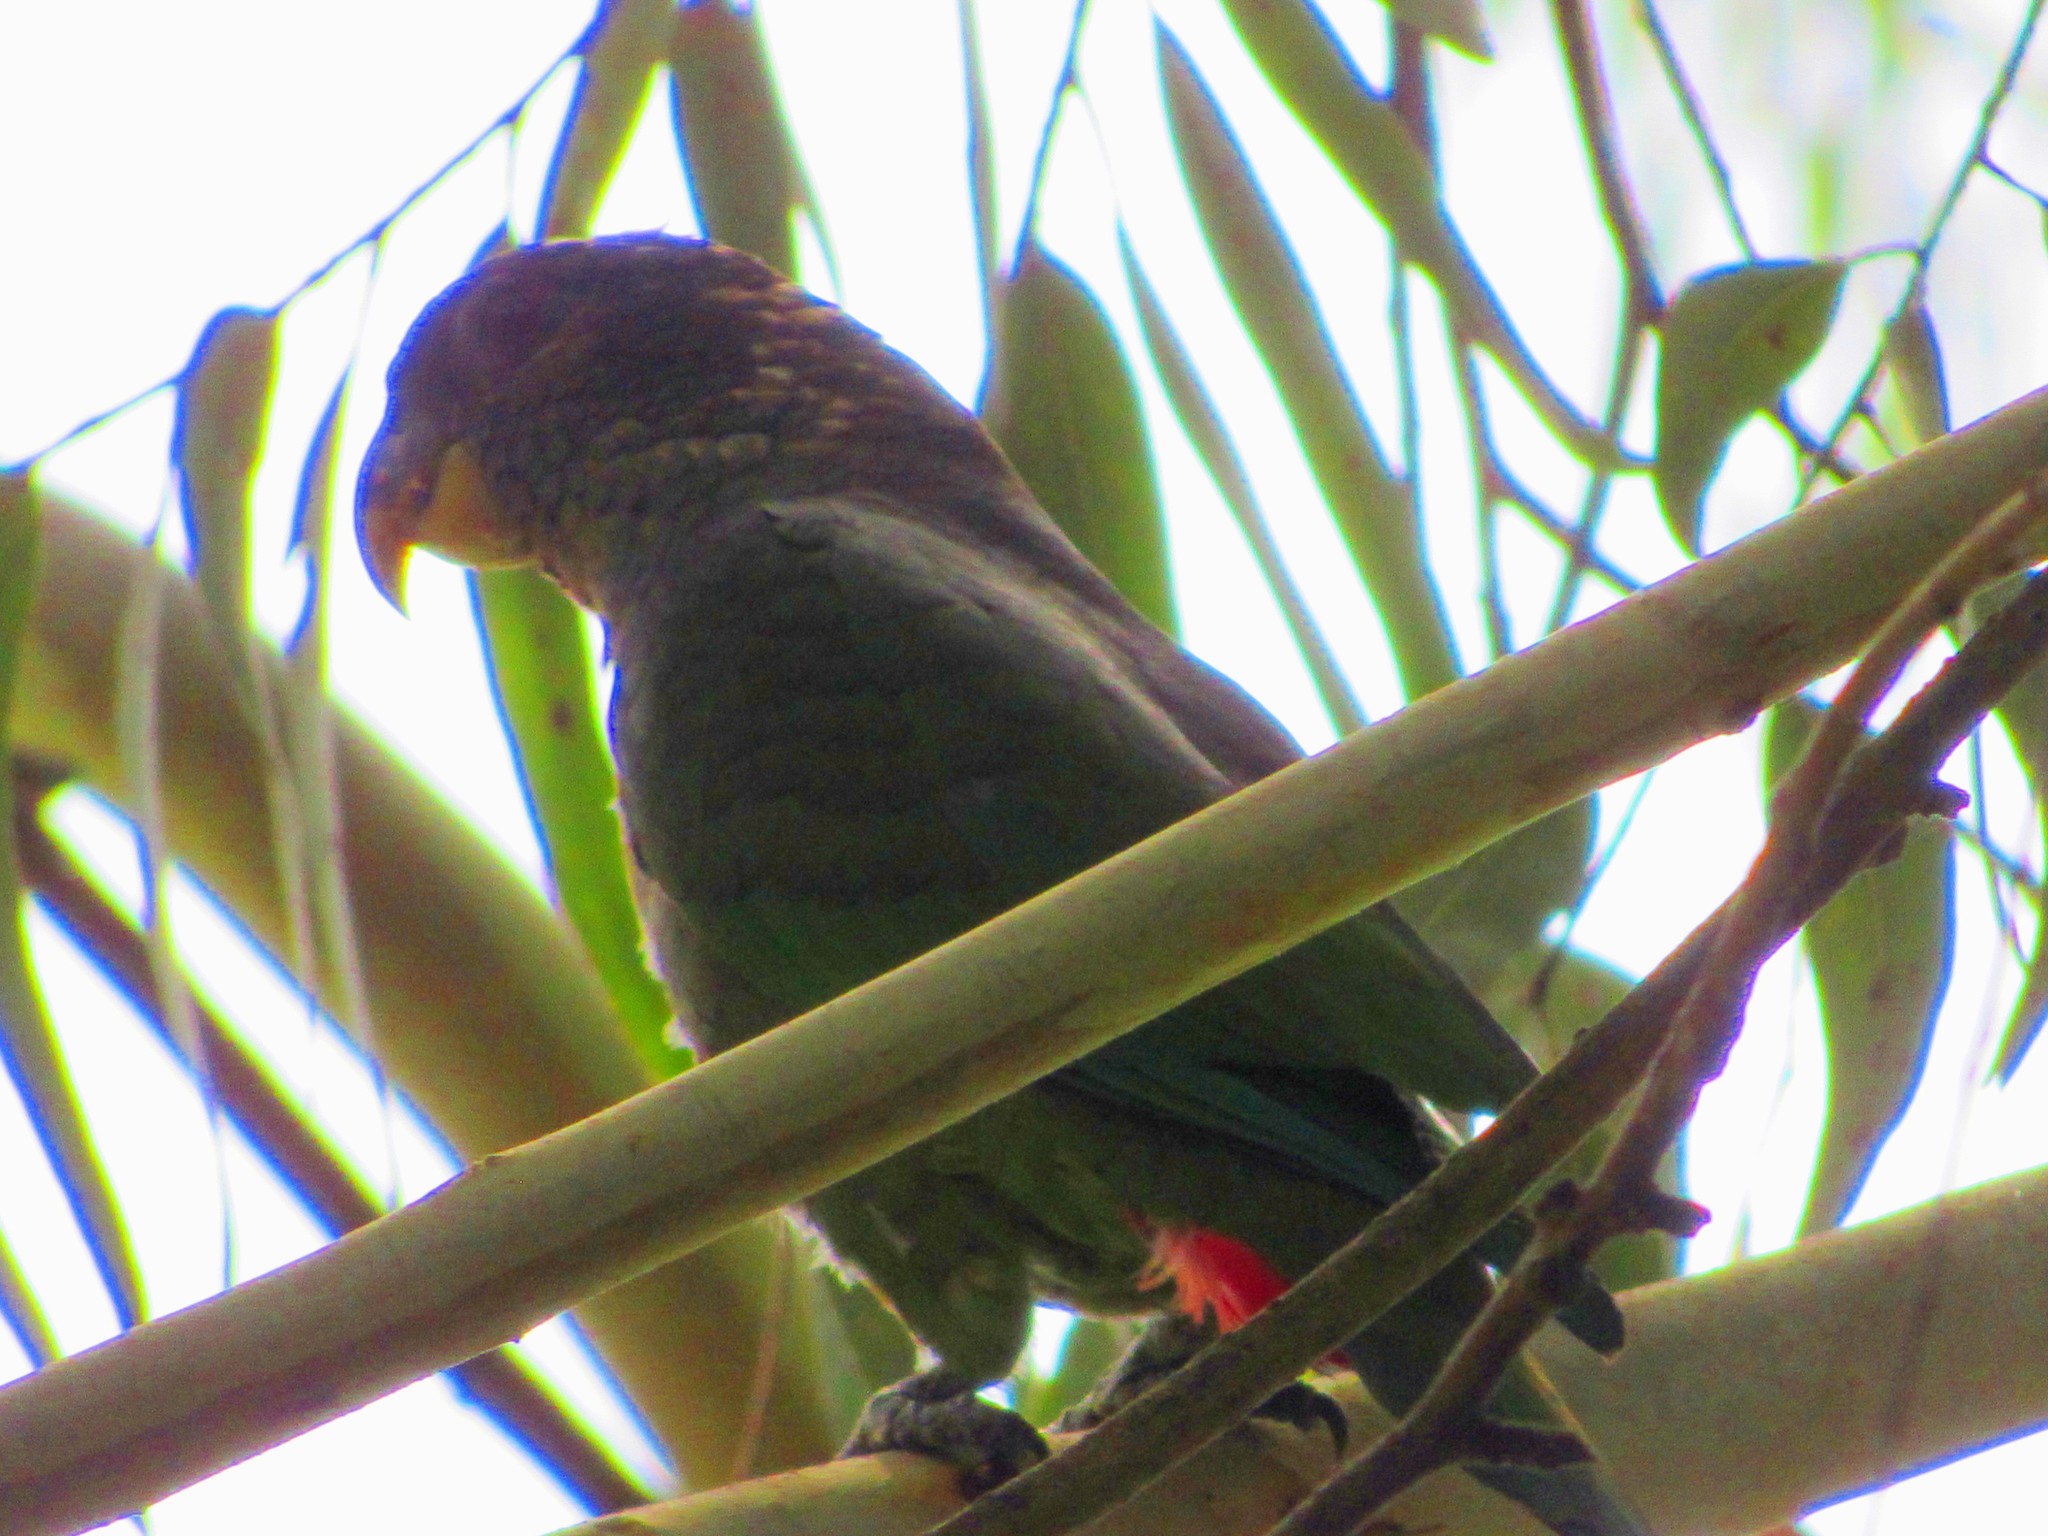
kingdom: Animalia
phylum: Chordata
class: Aves
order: Psittaciformes
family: Psittacidae
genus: Pionus
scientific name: Pionus maximiliani
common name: Scaly-headed parrot
